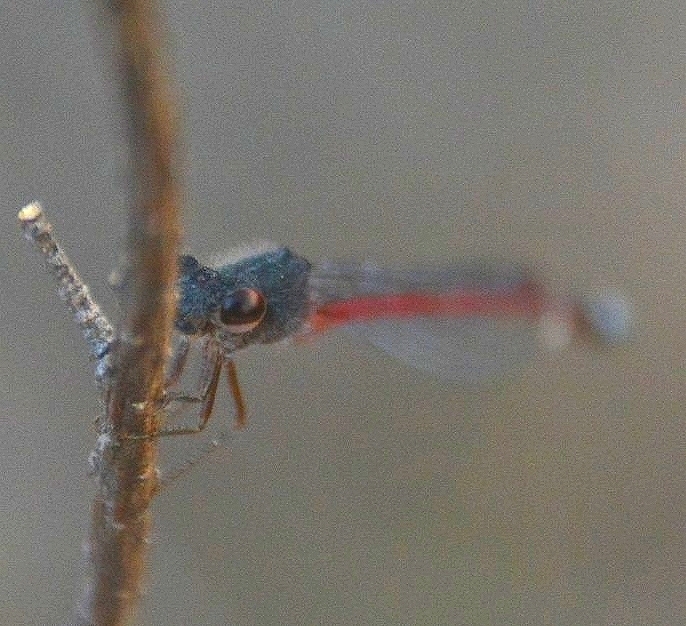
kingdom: Animalia
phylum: Arthropoda
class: Insecta
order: Odonata
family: Coenagrionidae
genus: Oxyagrion
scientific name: Oxyagrion rubidum
